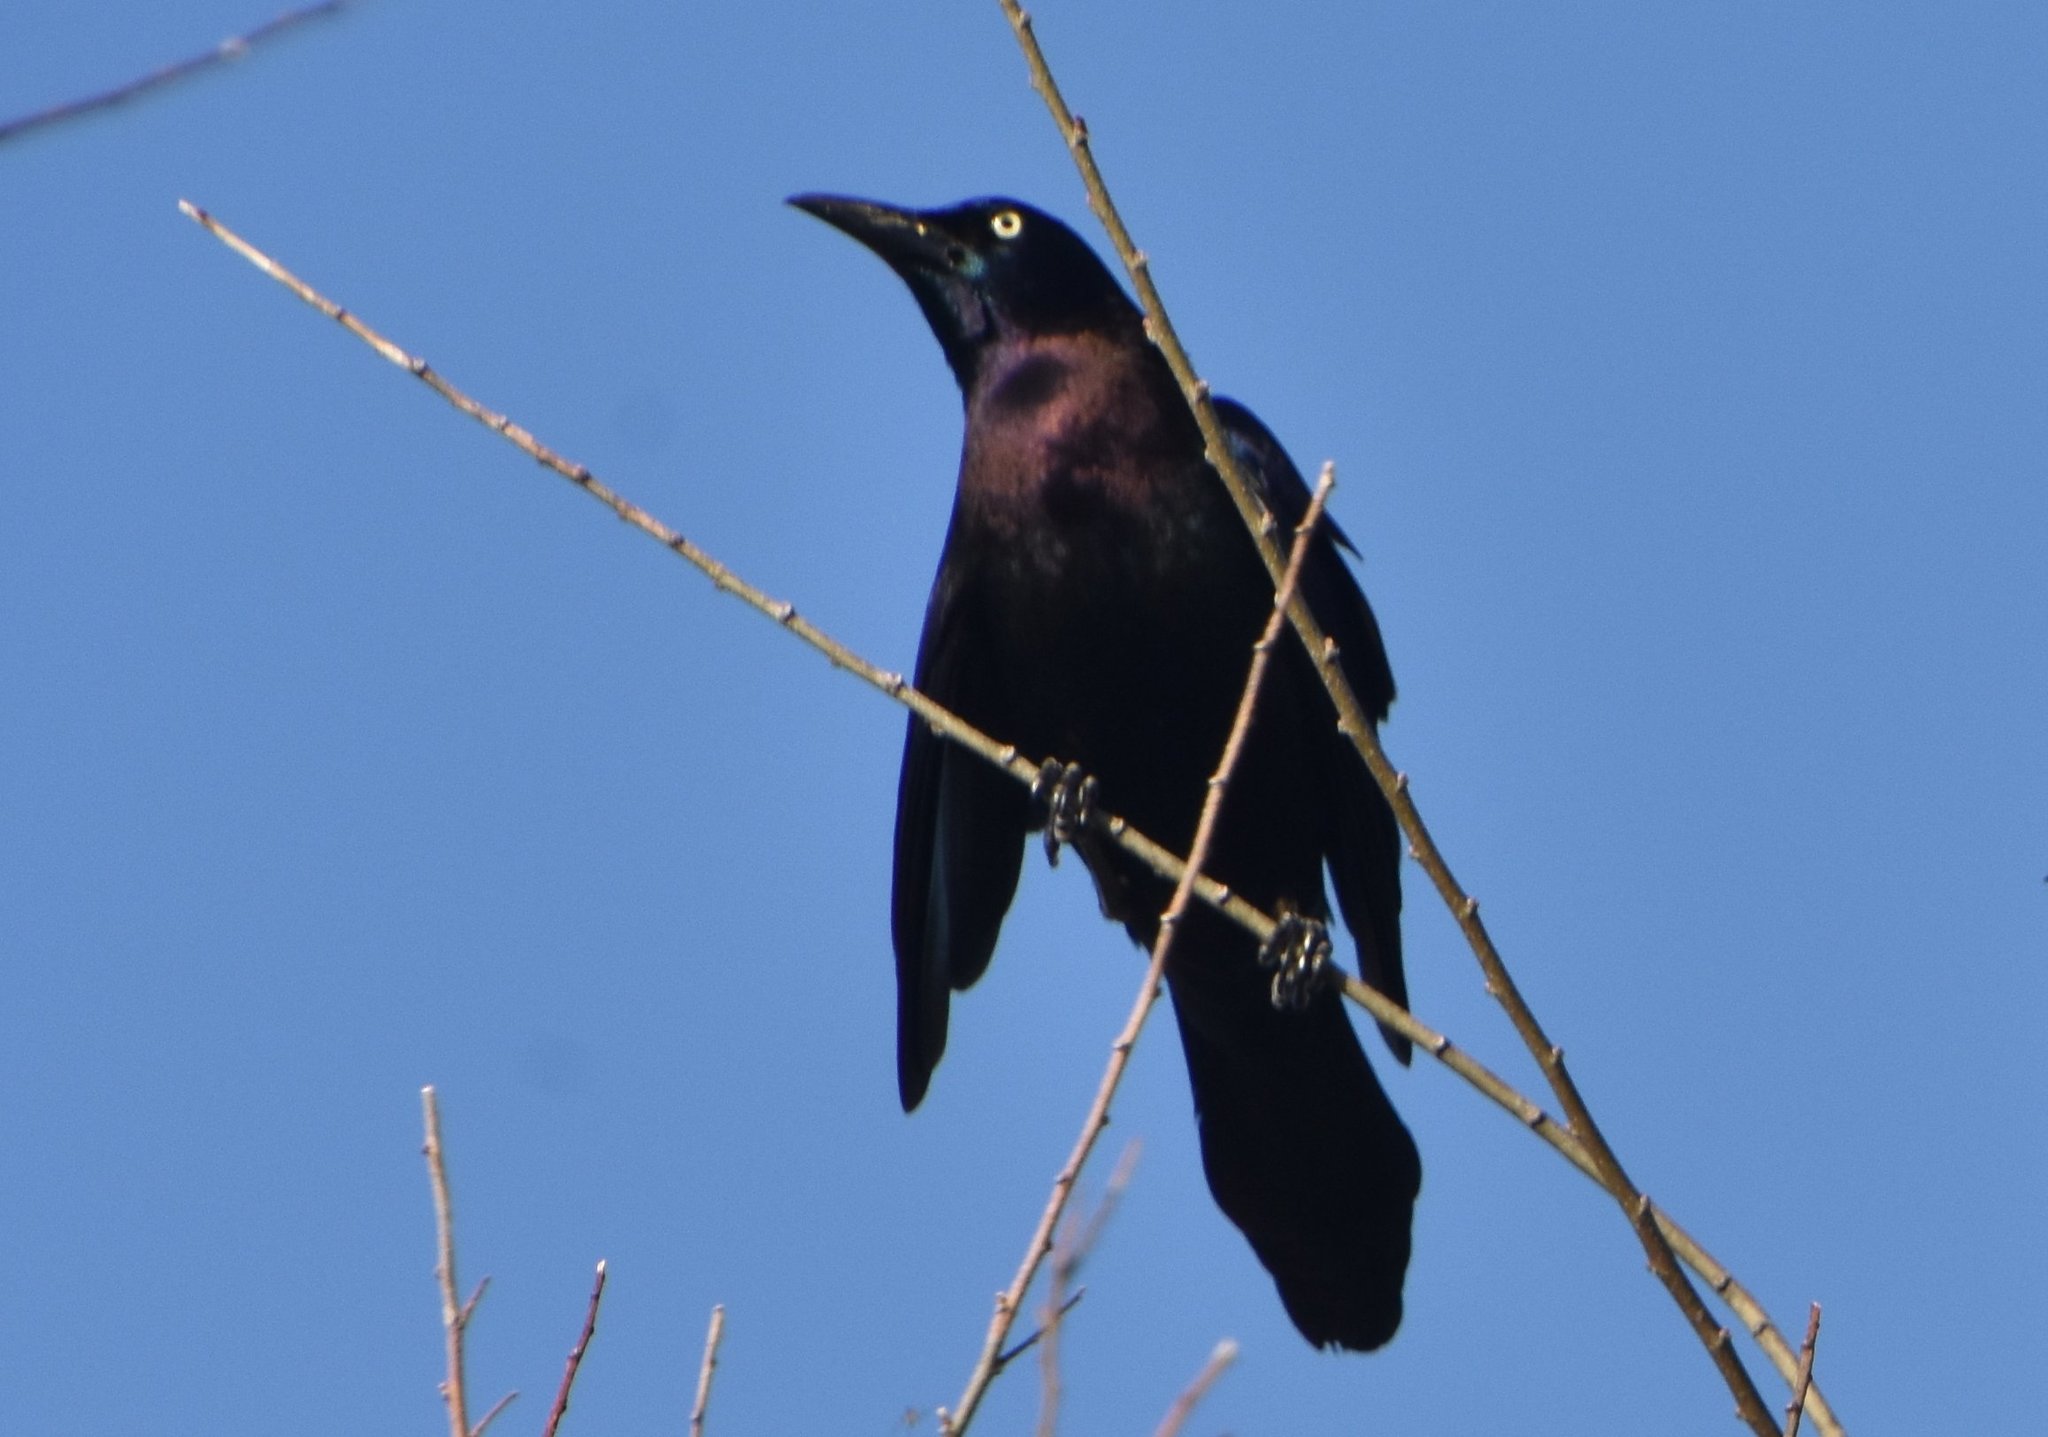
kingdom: Animalia
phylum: Chordata
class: Aves
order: Passeriformes
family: Icteridae
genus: Quiscalus
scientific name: Quiscalus quiscula
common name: Common grackle
